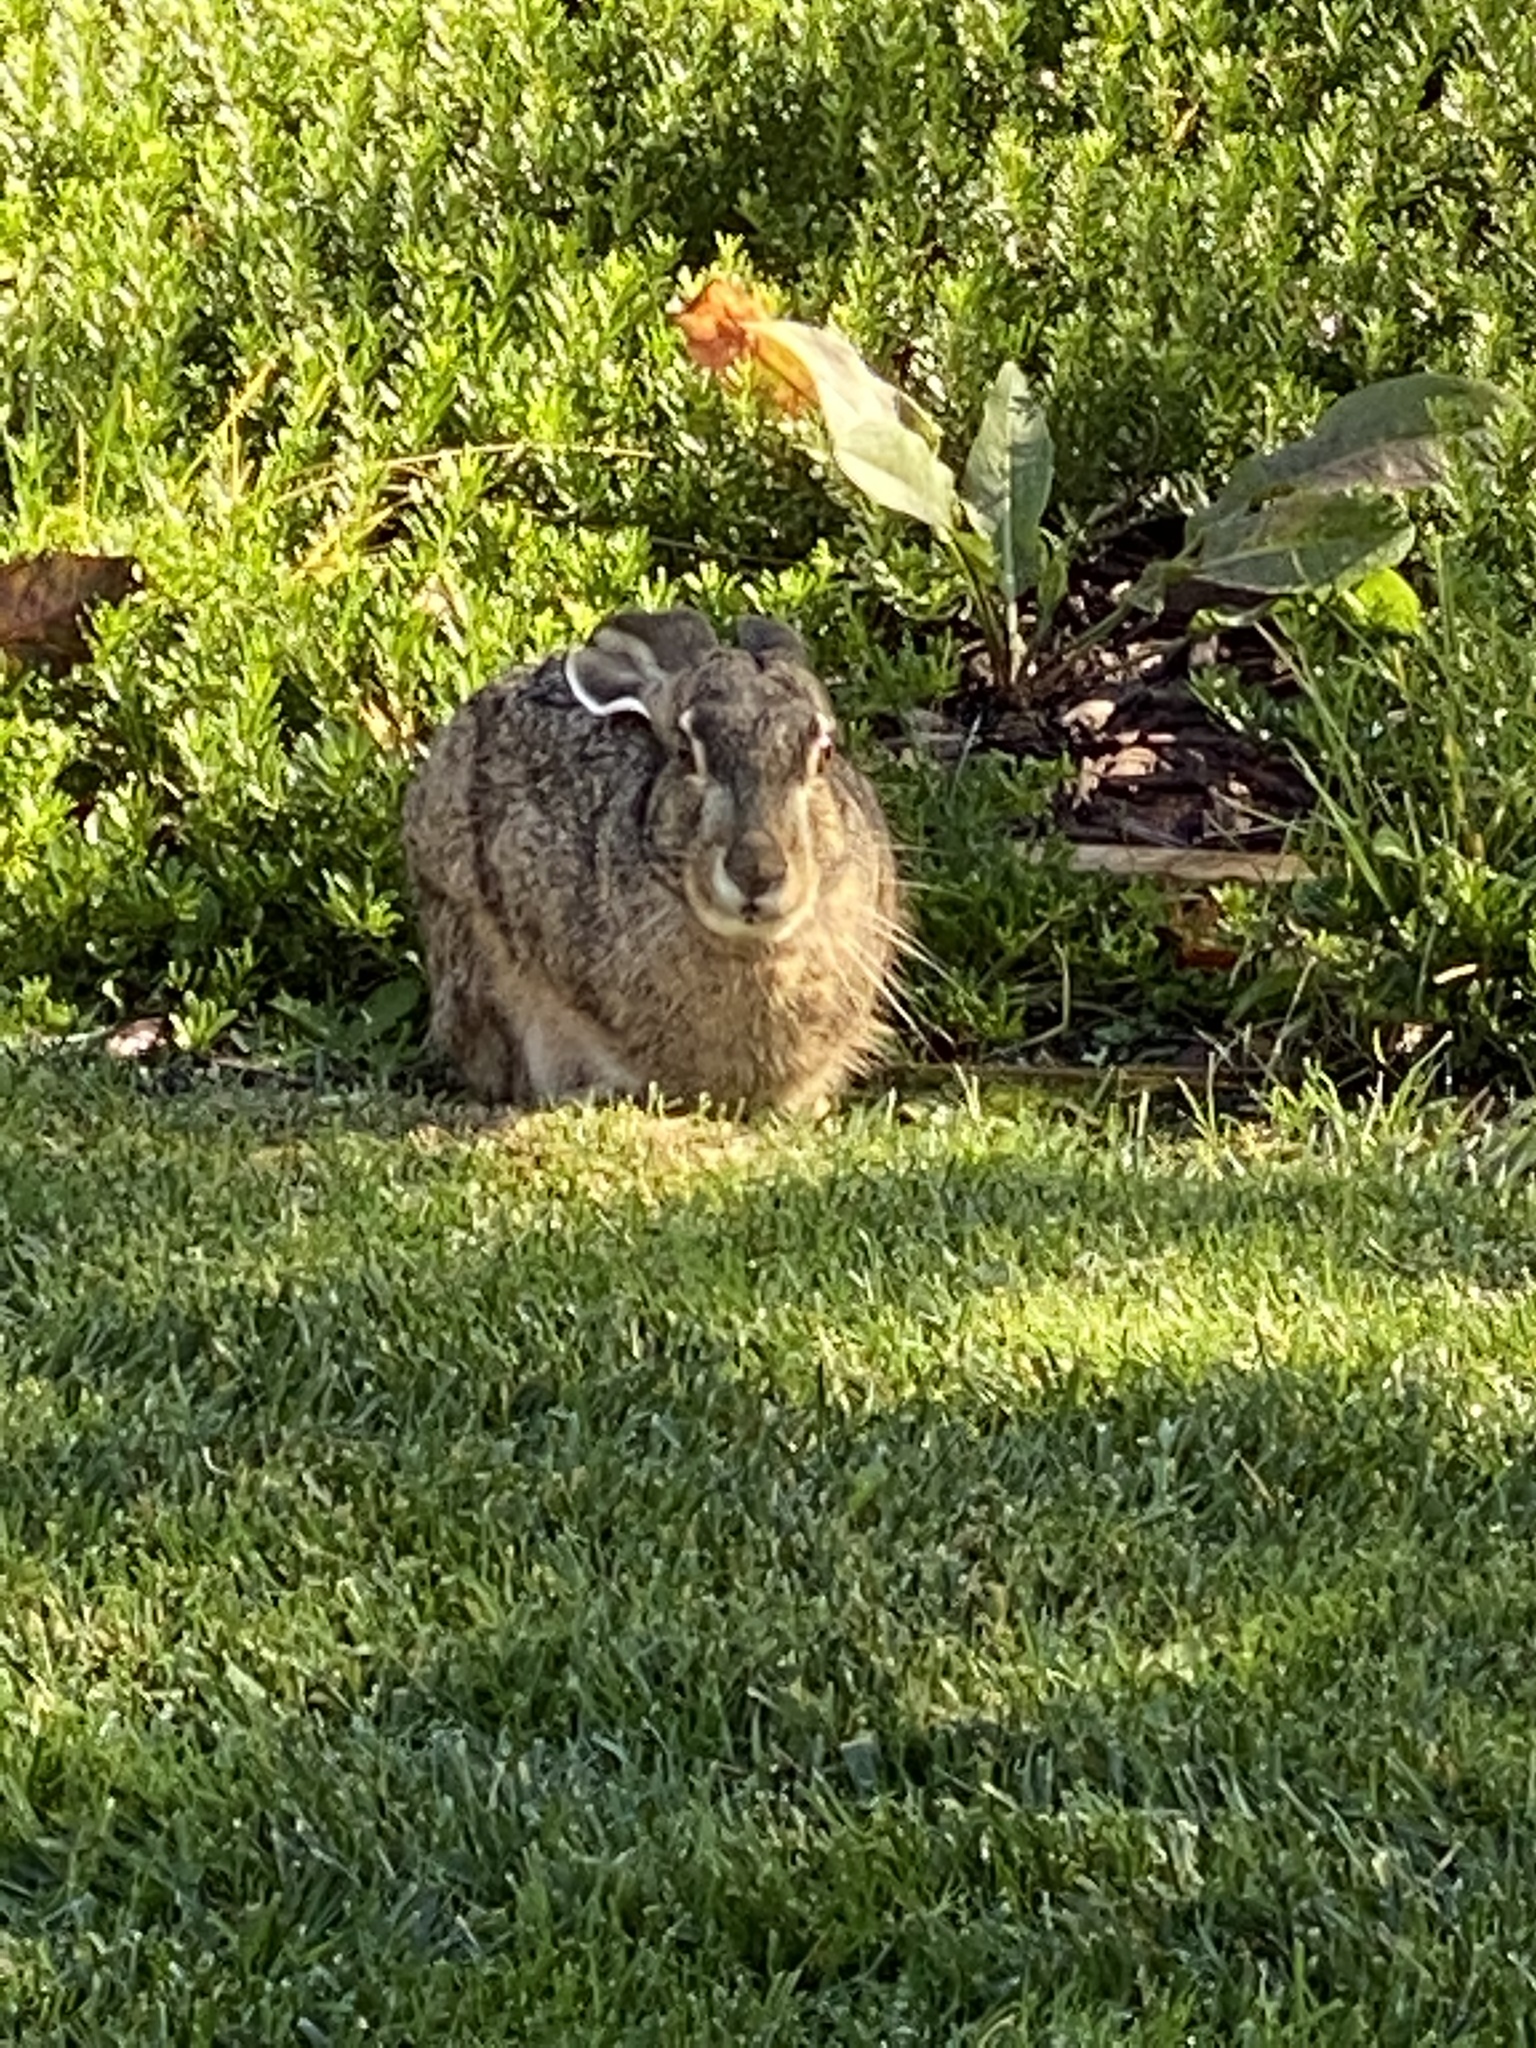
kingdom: Animalia
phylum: Chordata
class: Mammalia
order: Lagomorpha
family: Leporidae
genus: Lepus
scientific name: Lepus californicus
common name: Black-tailed jackrabbit
